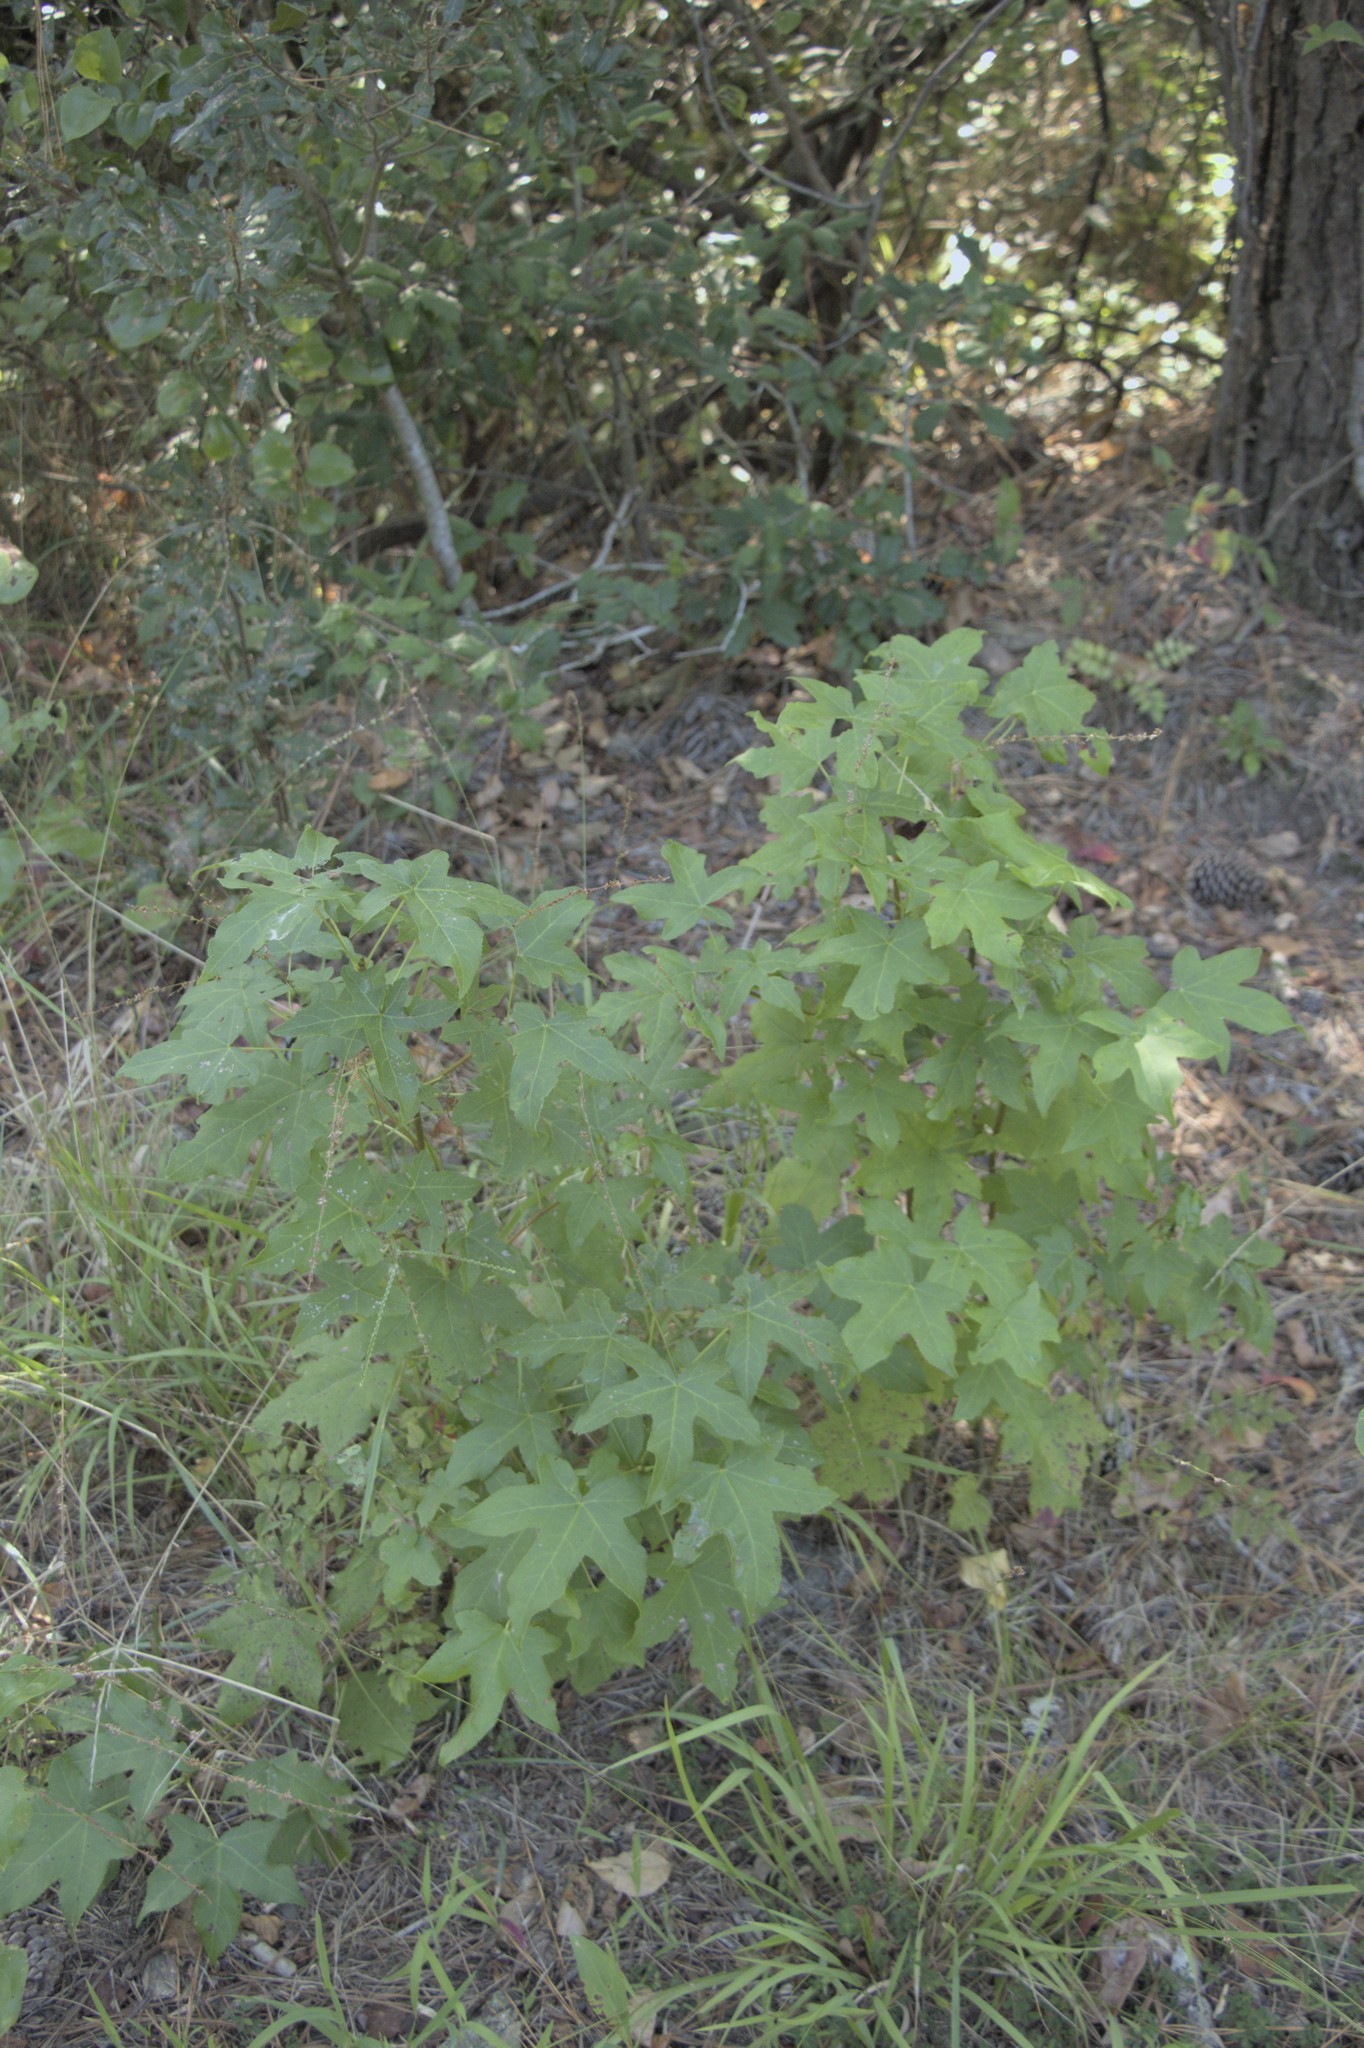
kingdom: Plantae
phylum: Tracheophyta
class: Magnoliopsida
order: Saxifragales
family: Altingiaceae
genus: Liquidambar
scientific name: Liquidambar styraciflua
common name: Sweet gum
